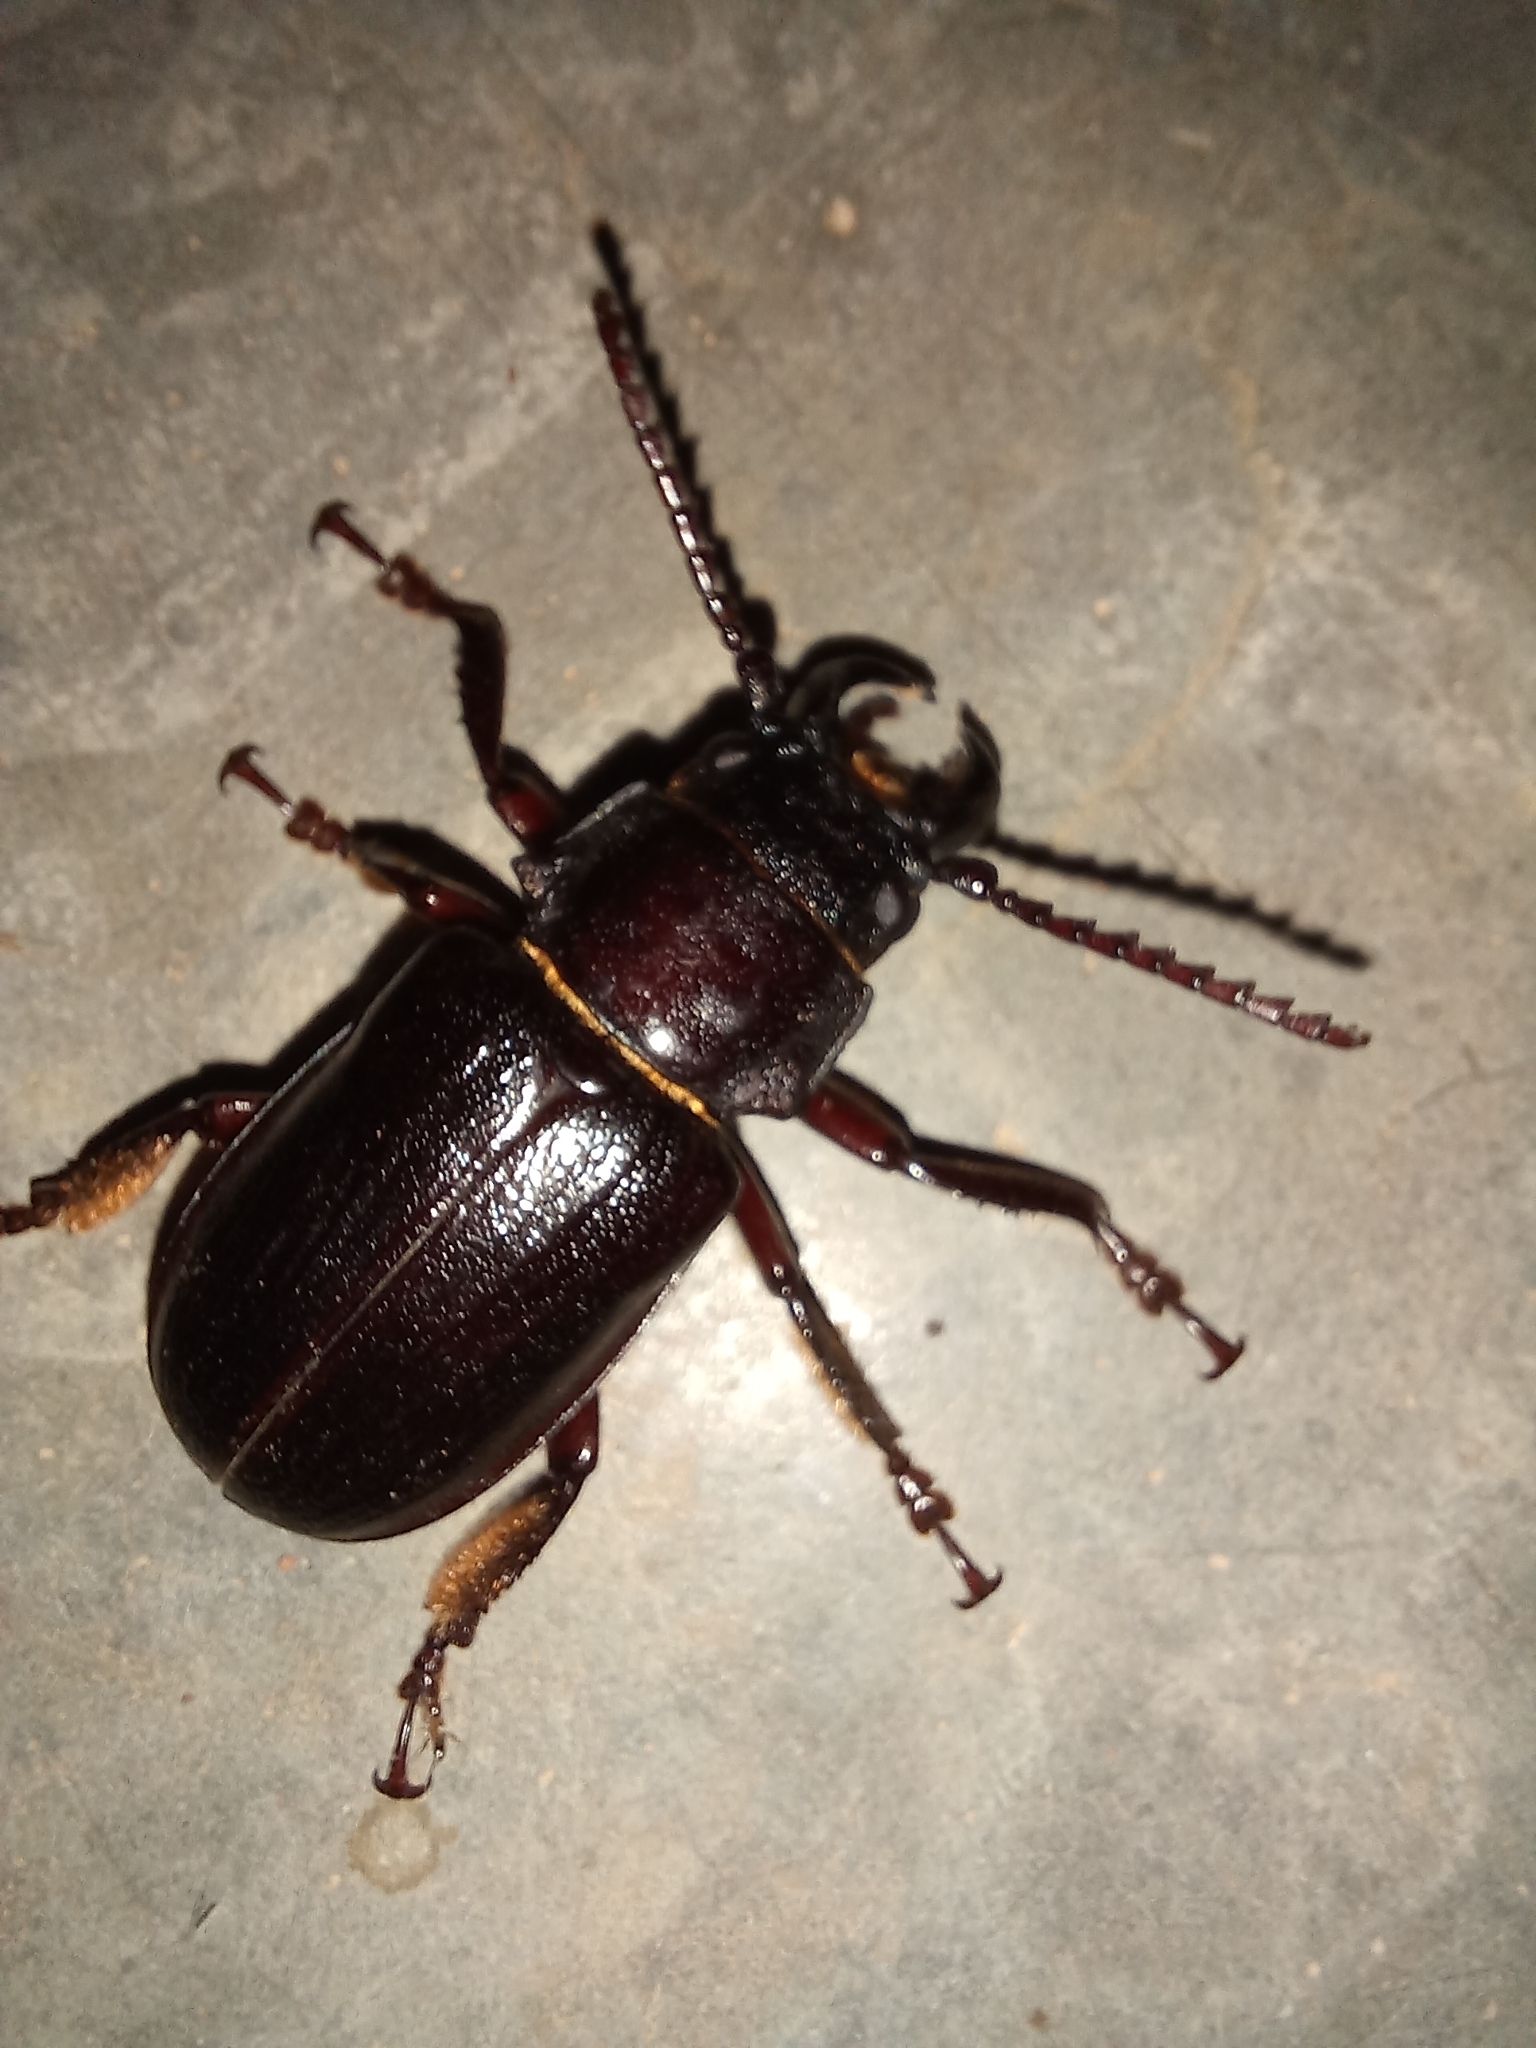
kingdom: Animalia
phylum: Arthropoda
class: Insecta
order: Coleoptera
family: Cerambycidae
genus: Cantharocnemis
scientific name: Cantharocnemis spondyloides
